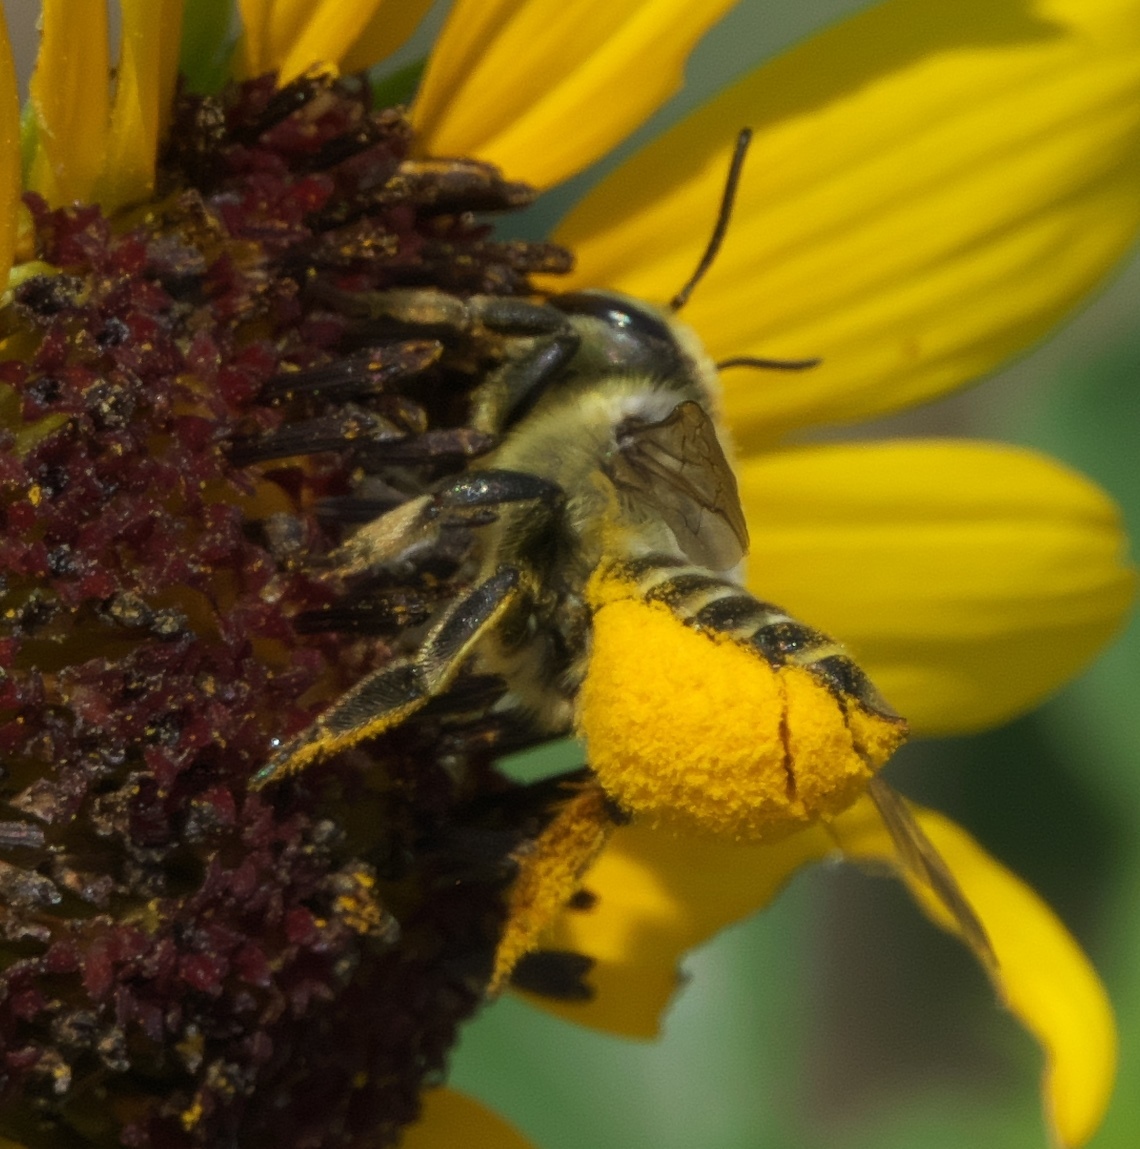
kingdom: Animalia
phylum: Arthropoda
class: Insecta
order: Hymenoptera
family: Megachilidae
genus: Megachile
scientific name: Megachile parallela
